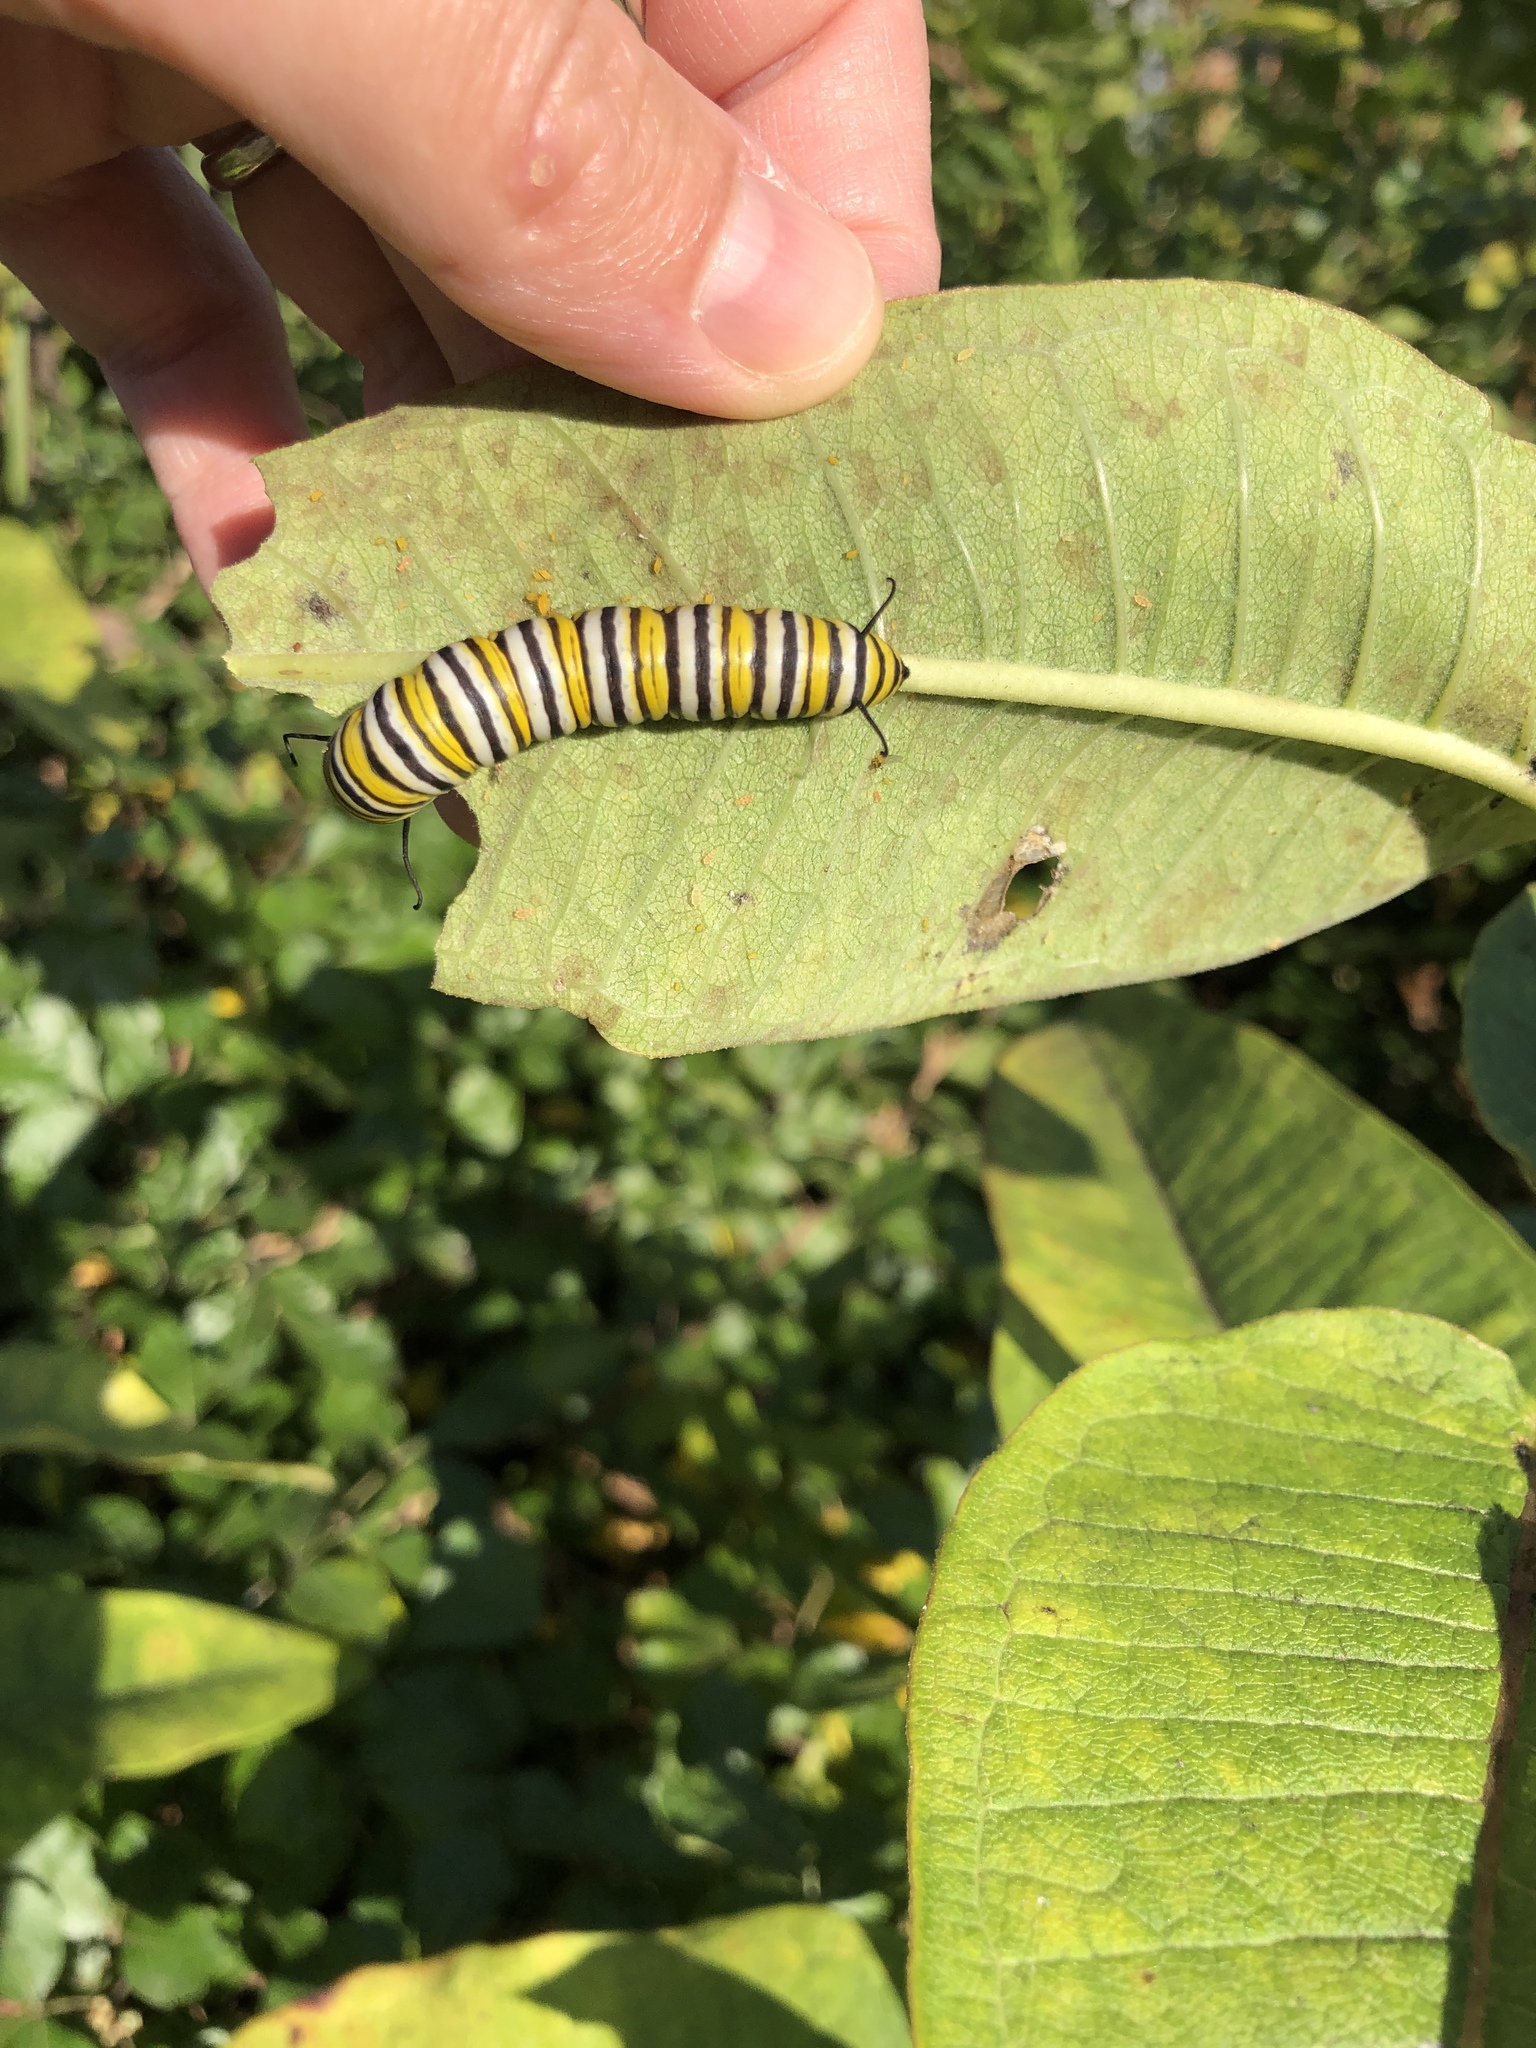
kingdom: Animalia
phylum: Arthropoda
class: Insecta
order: Lepidoptera
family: Nymphalidae
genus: Danaus
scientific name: Danaus plexippus
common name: Monarch
